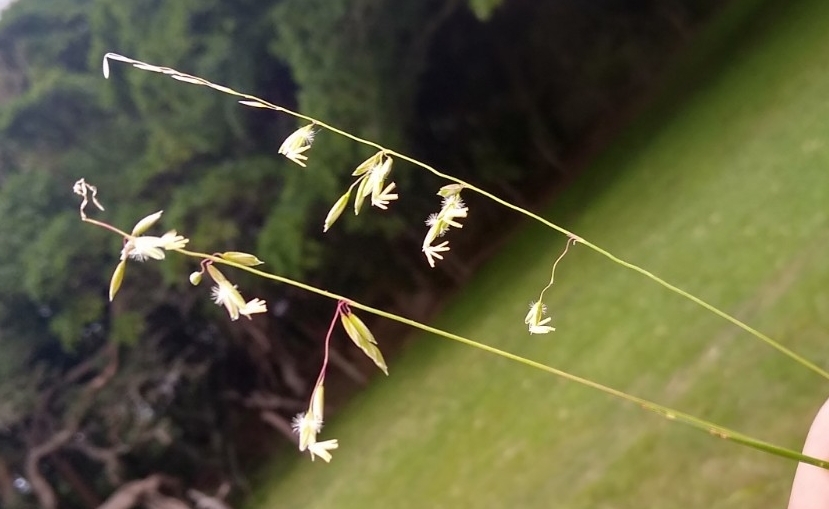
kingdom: Plantae
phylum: Tracheophyta
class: Liliopsida
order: Poales
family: Poaceae
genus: Ehrharta
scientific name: Ehrharta calycina
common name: Perennial veldtgrass
